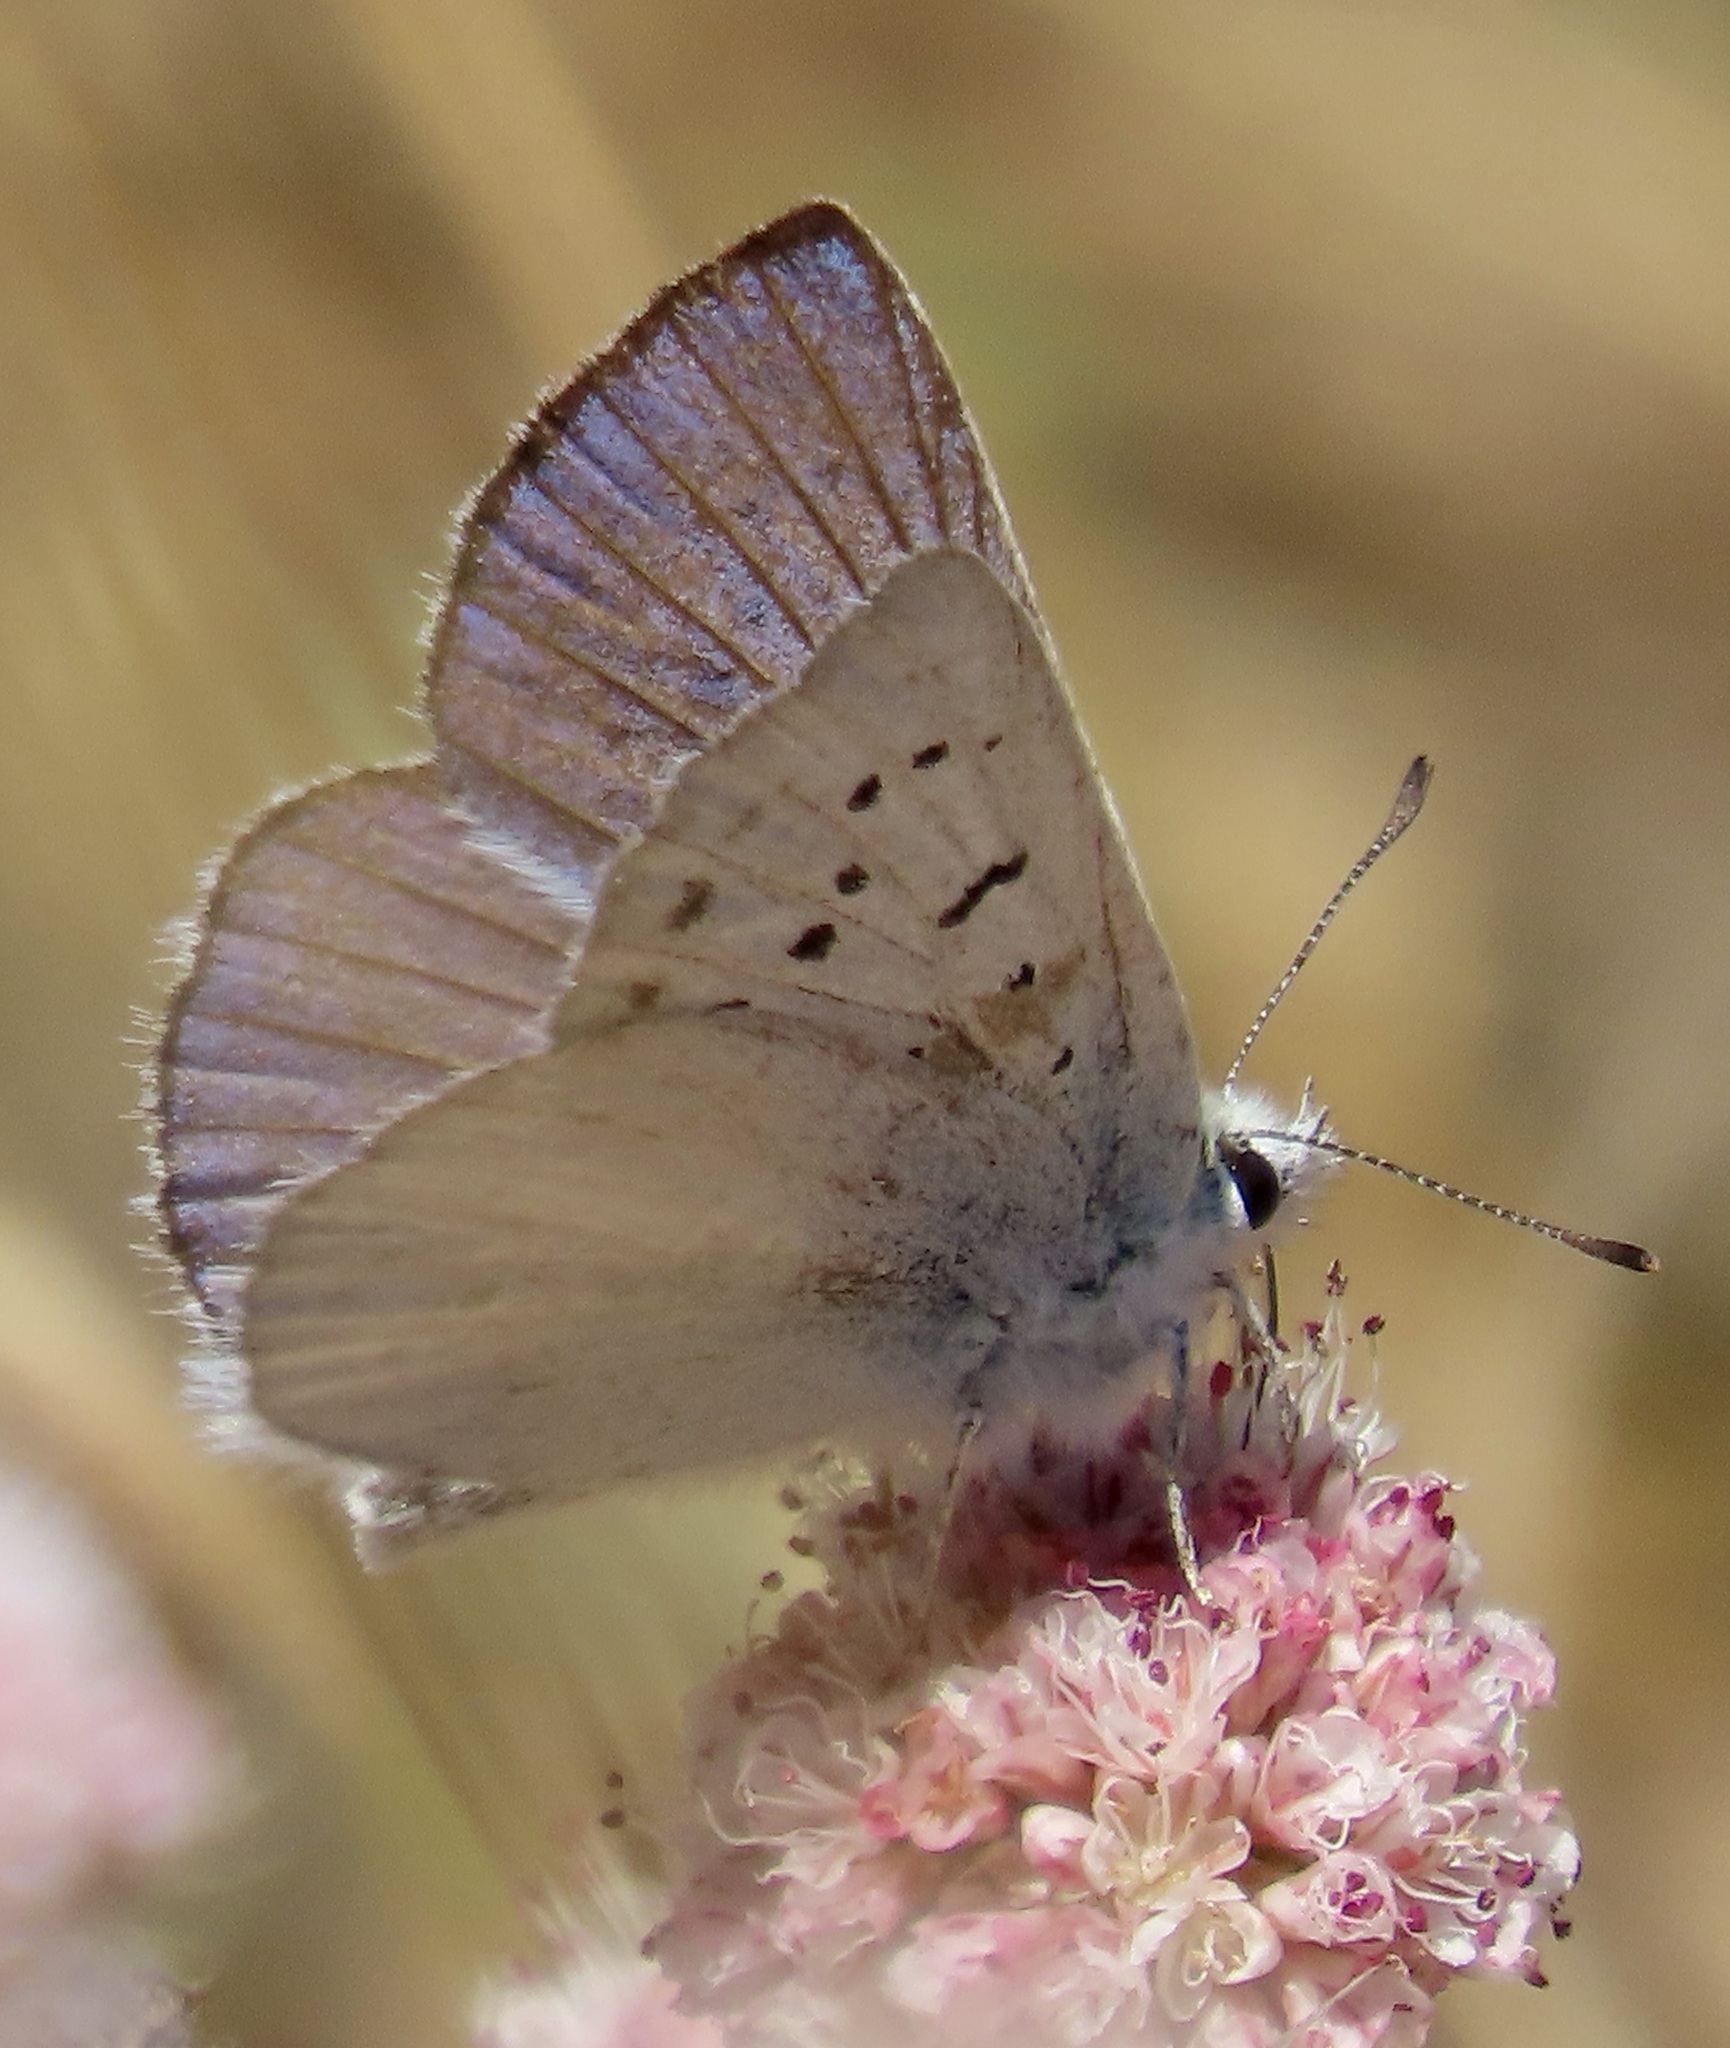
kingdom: Animalia
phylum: Arthropoda
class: Insecta
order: Lepidoptera
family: Lycaenidae
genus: Tharsalea
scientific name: Tharsalea heteronea
